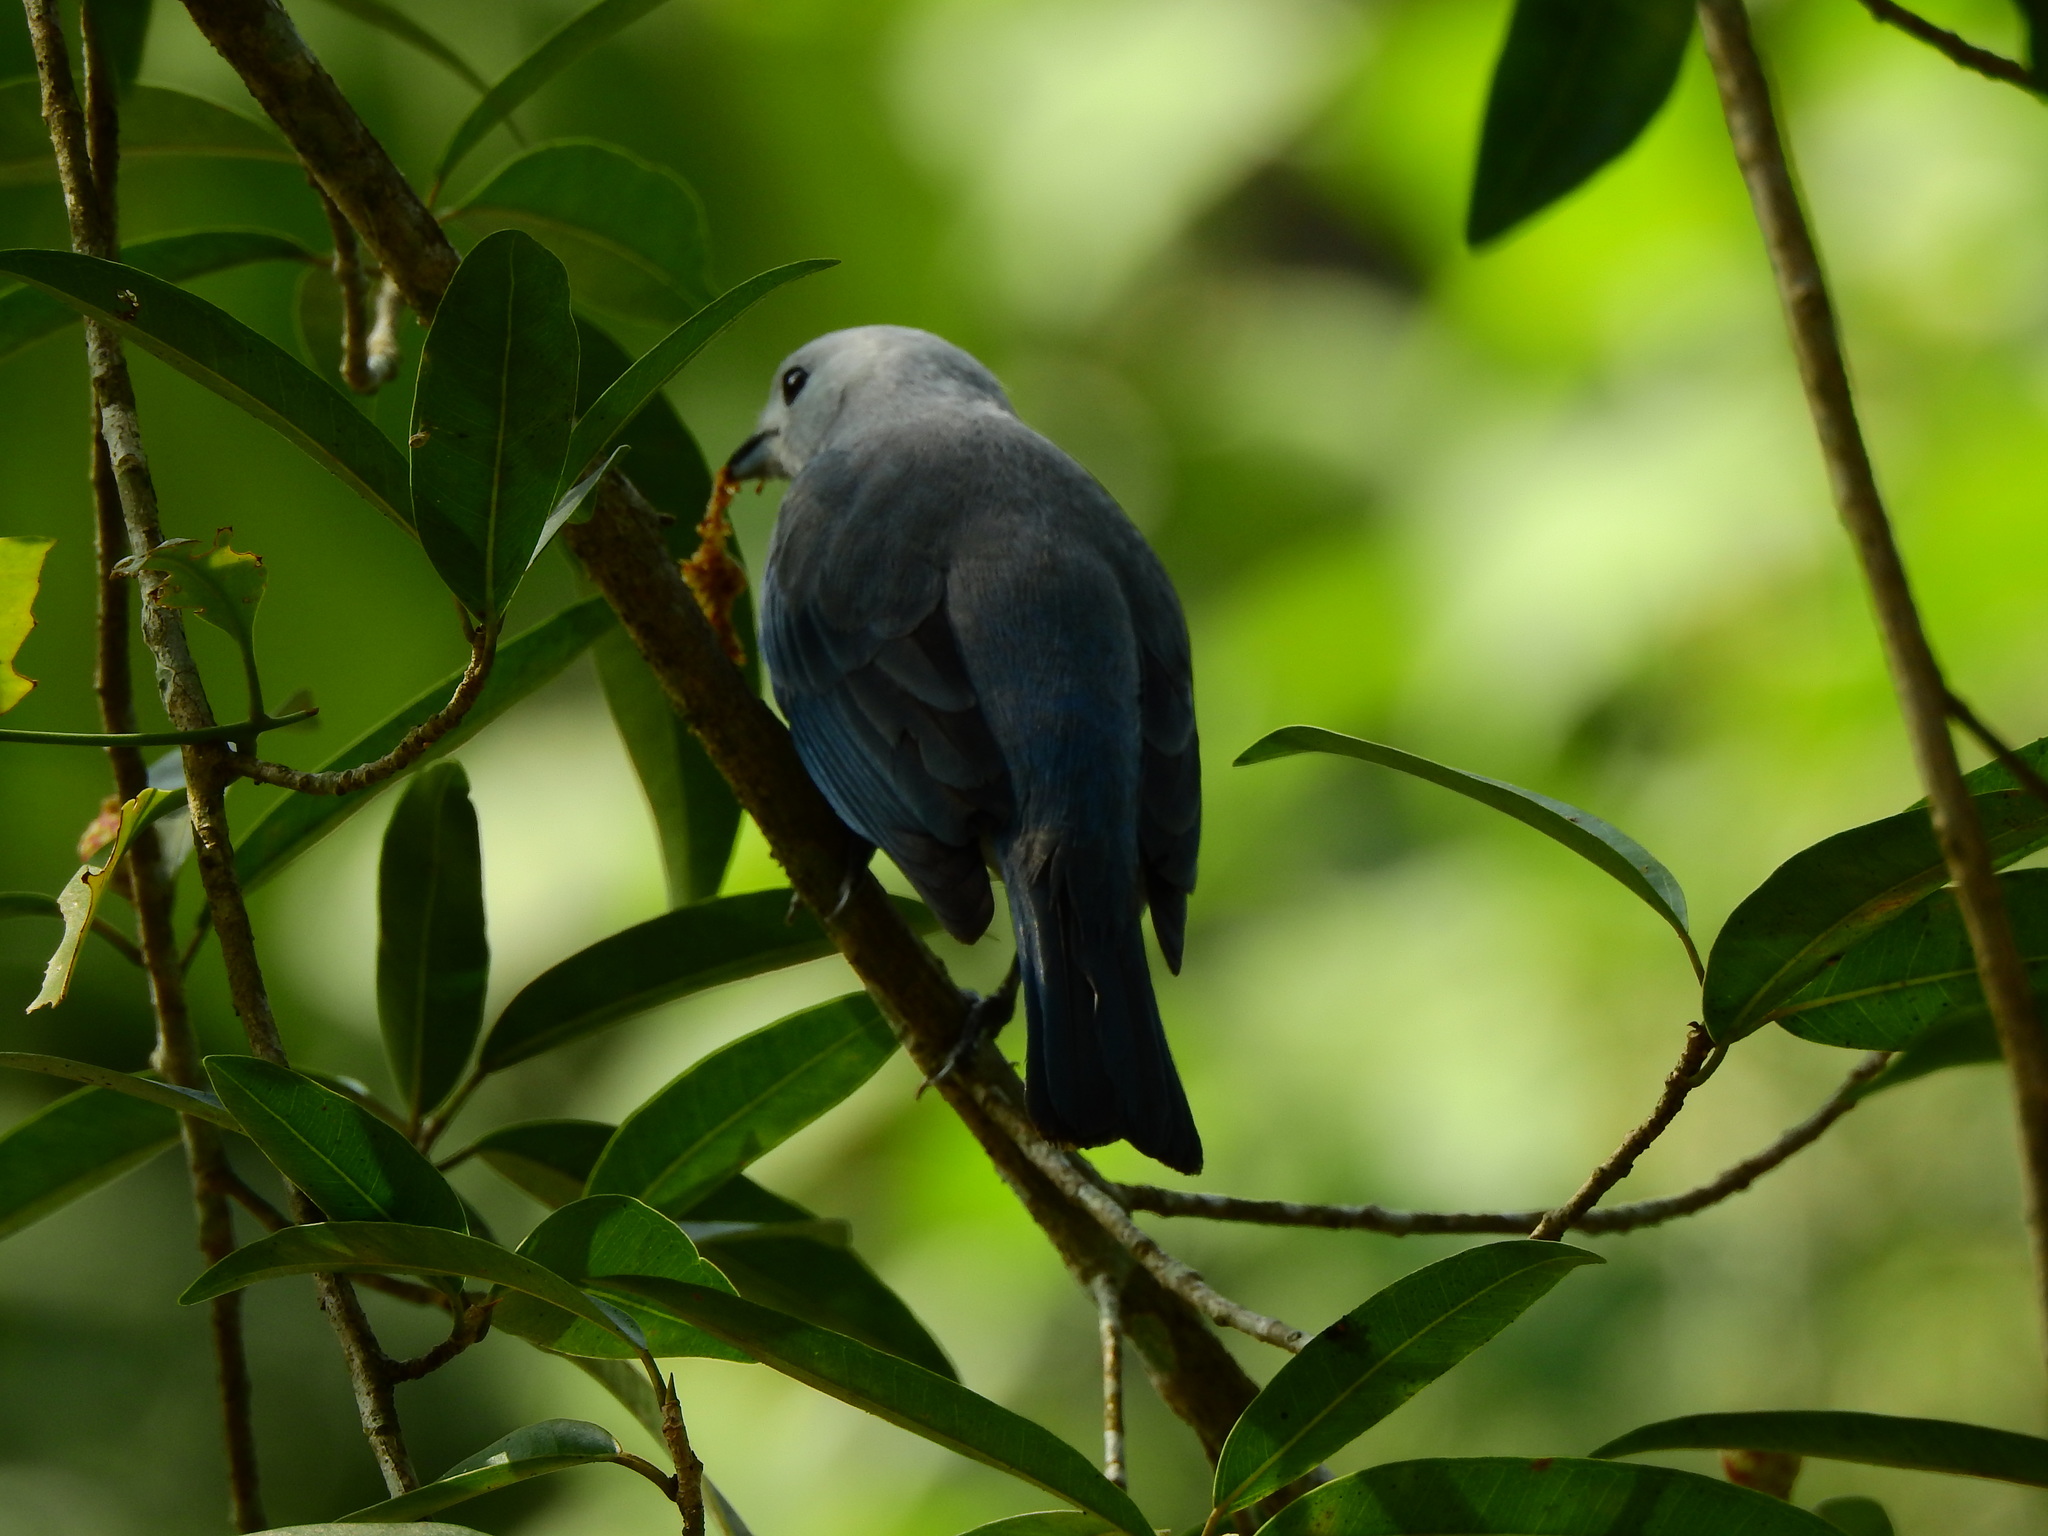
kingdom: Animalia
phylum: Chordata
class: Aves
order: Passeriformes
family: Thraupidae
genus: Thraupis
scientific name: Thraupis episcopus
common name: Blue-grey tanager
